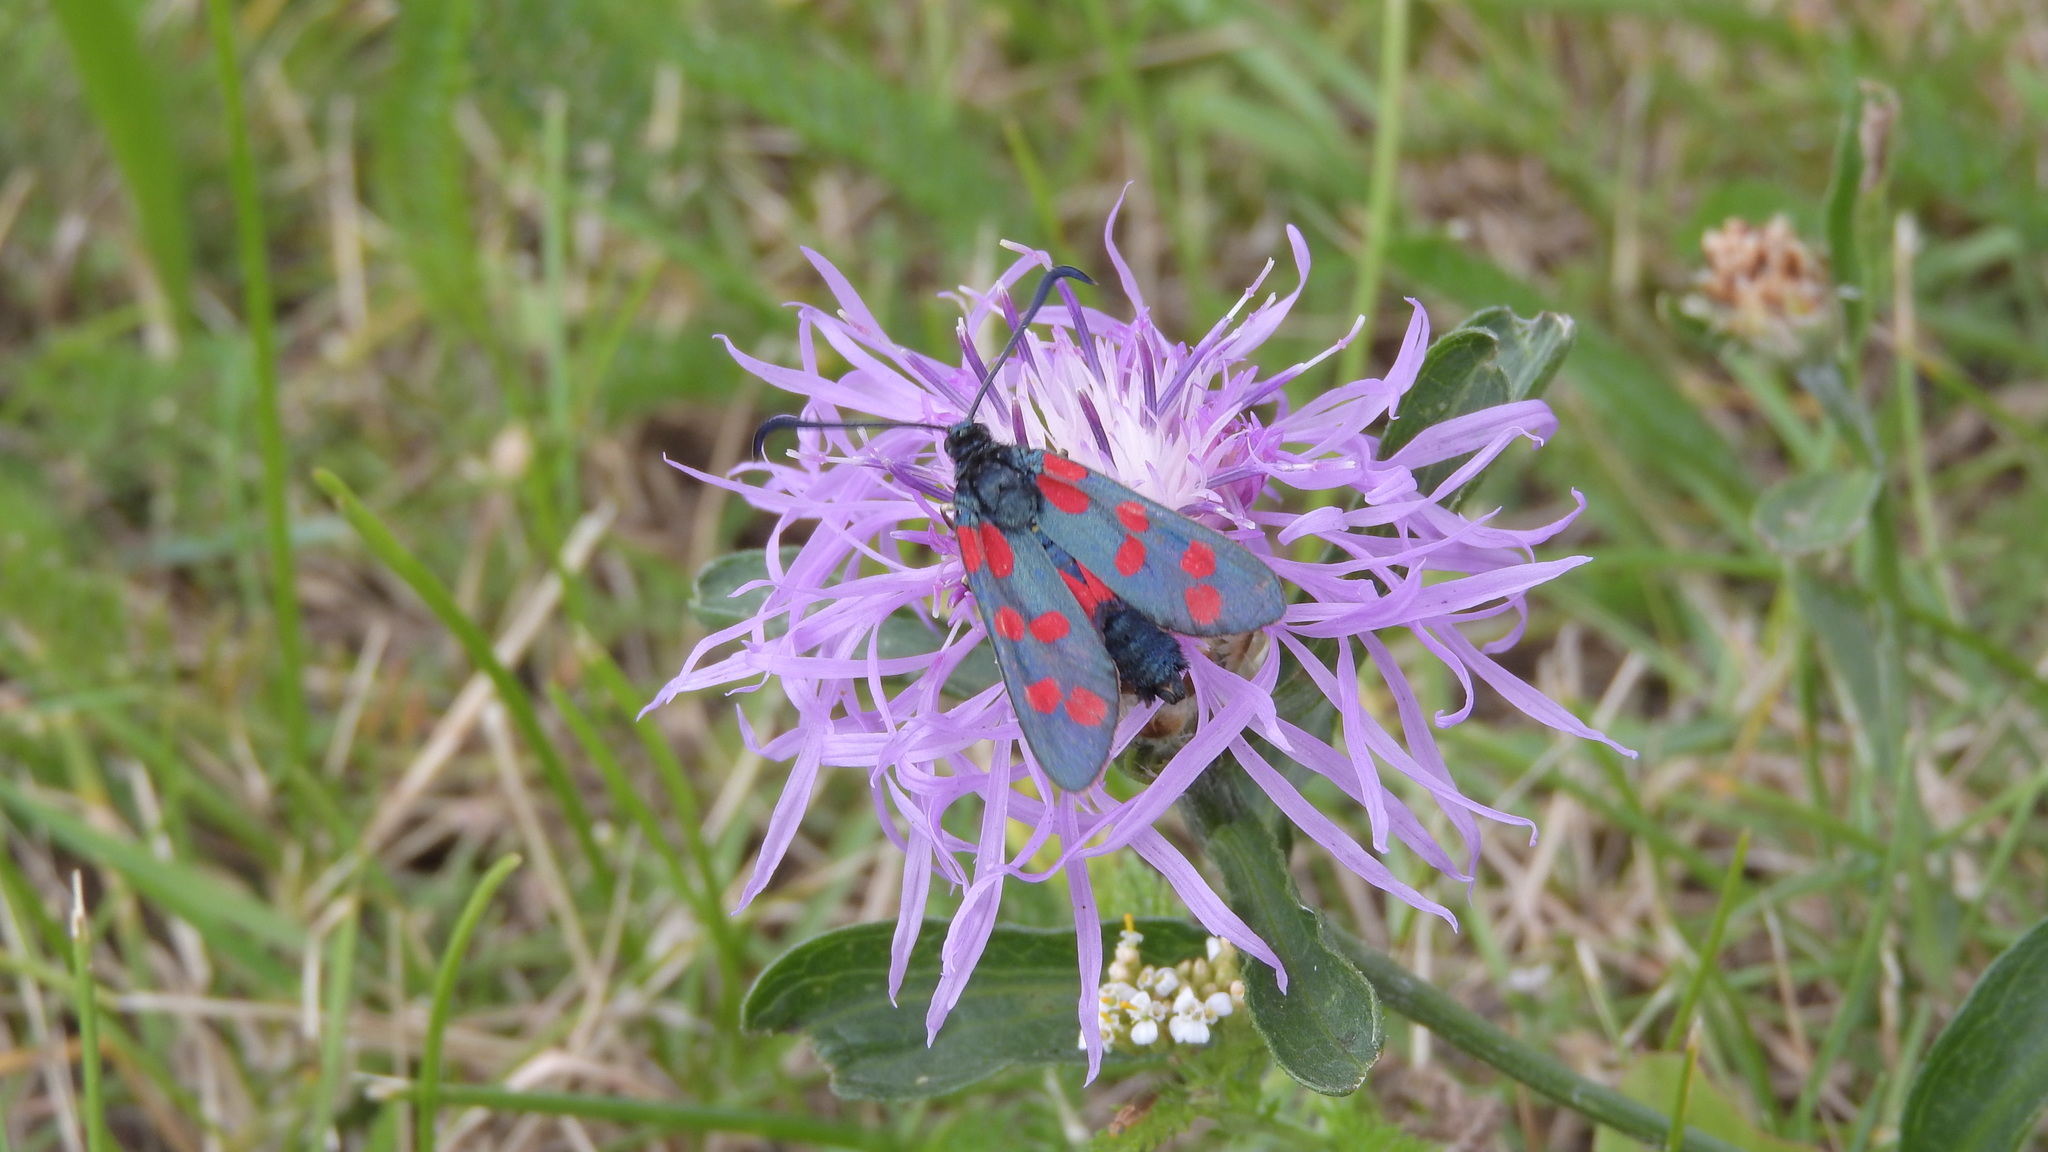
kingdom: Animalia
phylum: Arthropoda
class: Insecta
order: Lepidoptera
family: Zygaenidae
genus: Zygaena
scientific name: Zygaena filipendulae
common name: Six-spot burnet
